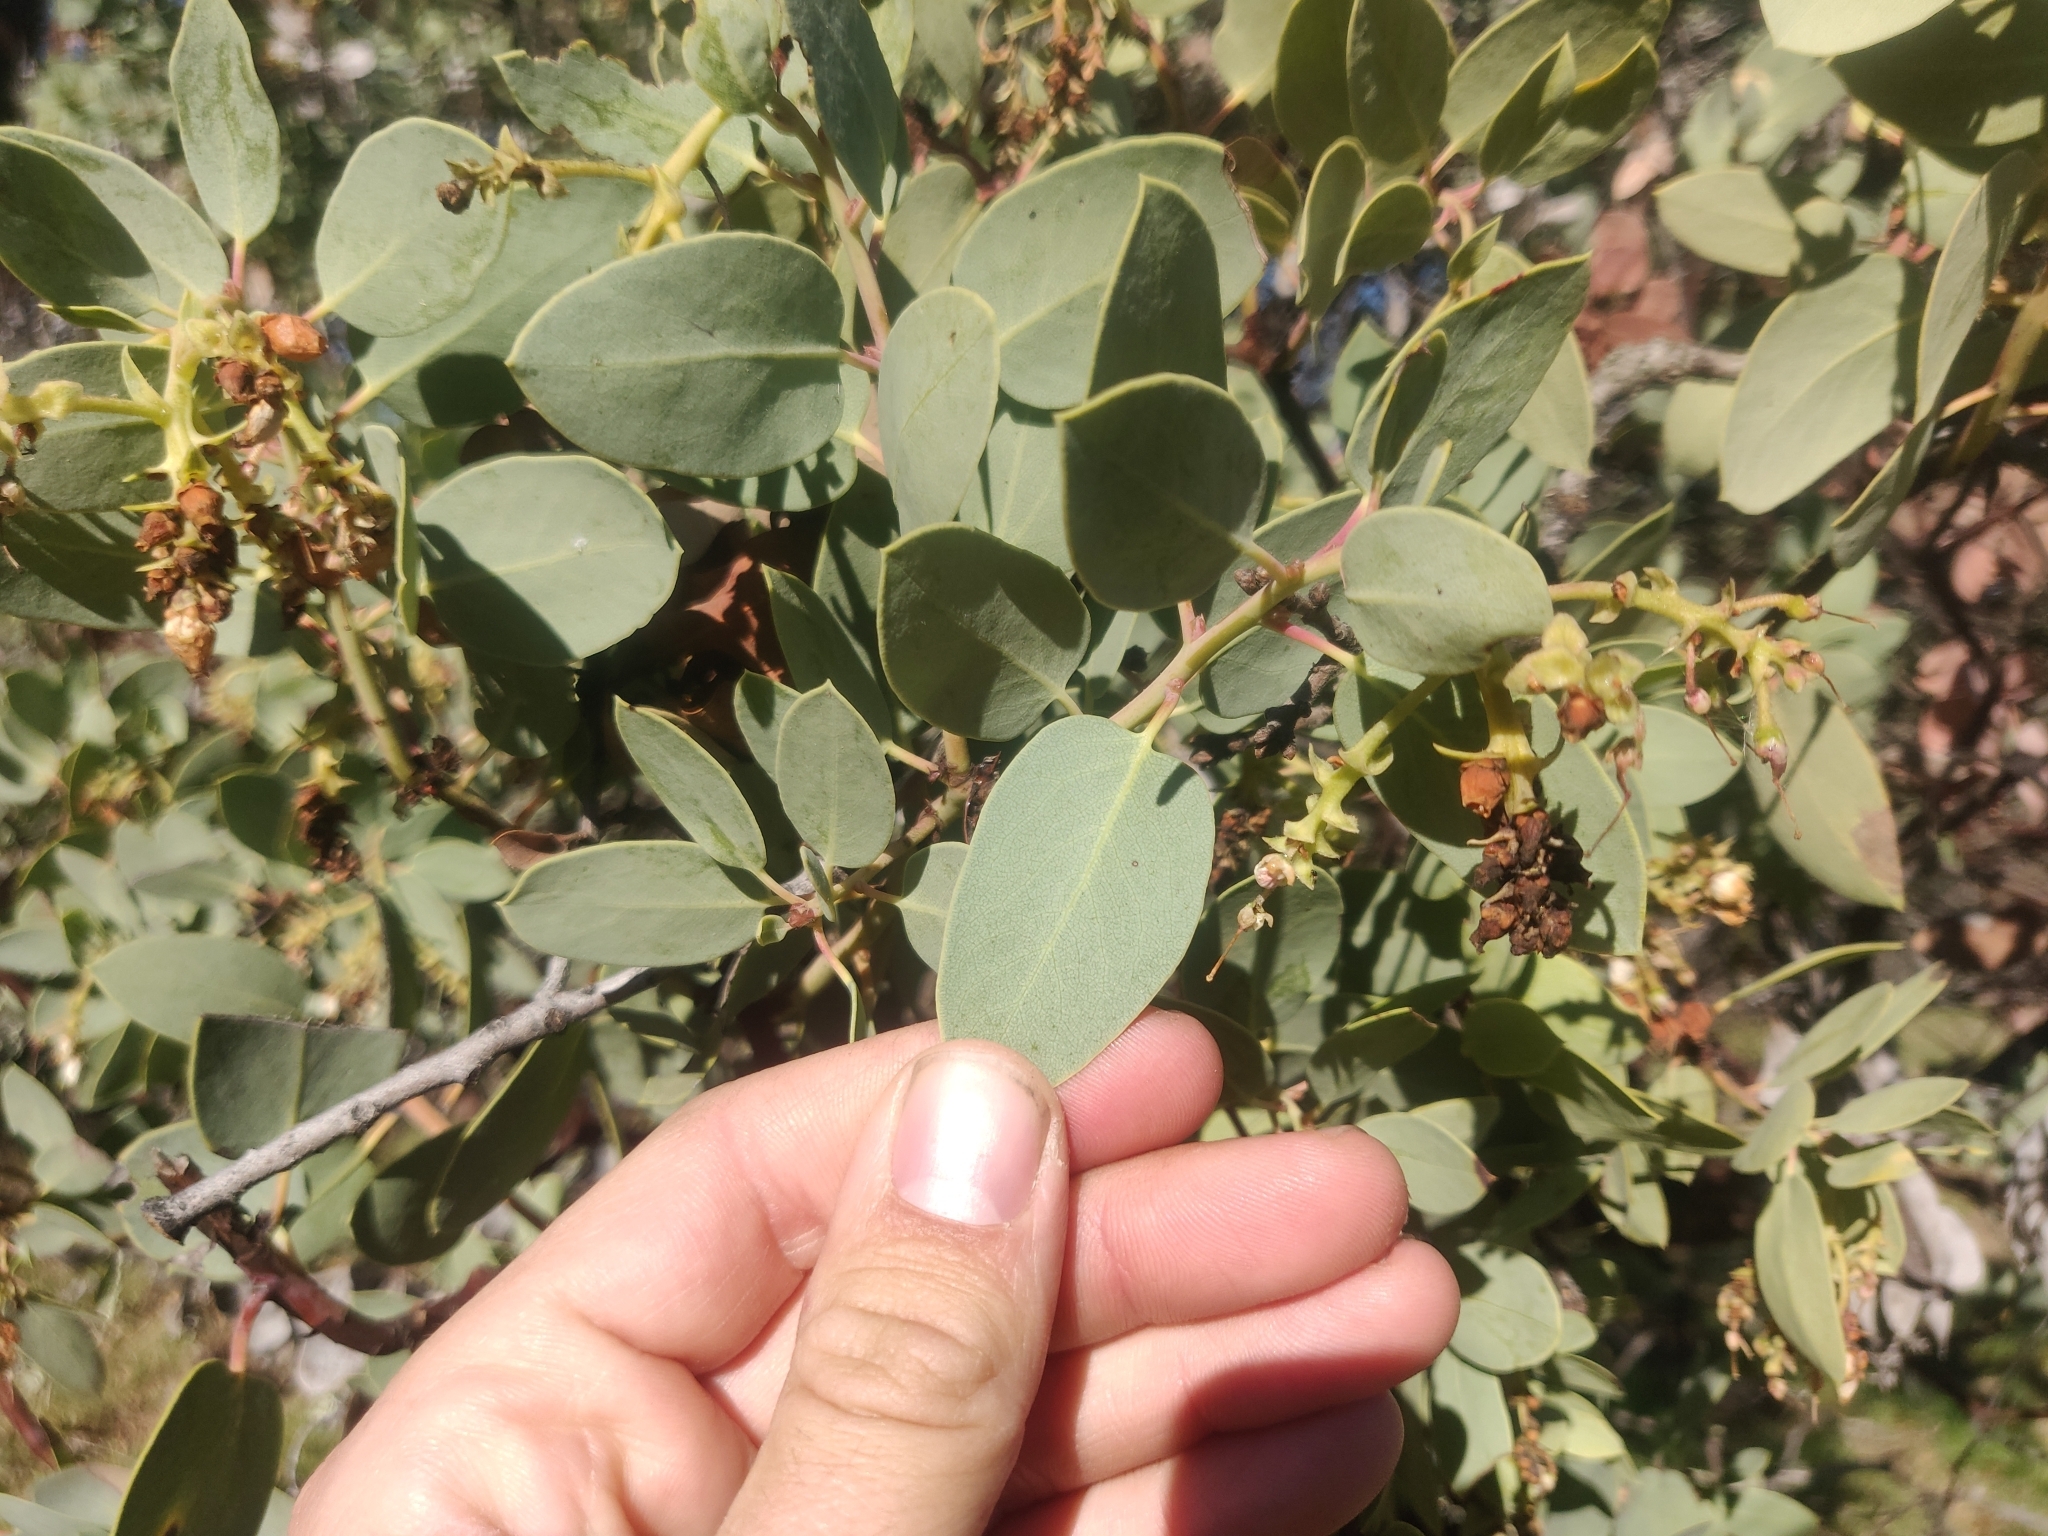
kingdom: Plantae
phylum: Tracheophyta
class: Magnoliopsida
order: Ericales
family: Ericaceae
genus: Arctostaphylos
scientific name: Arctostaphylos glauca
